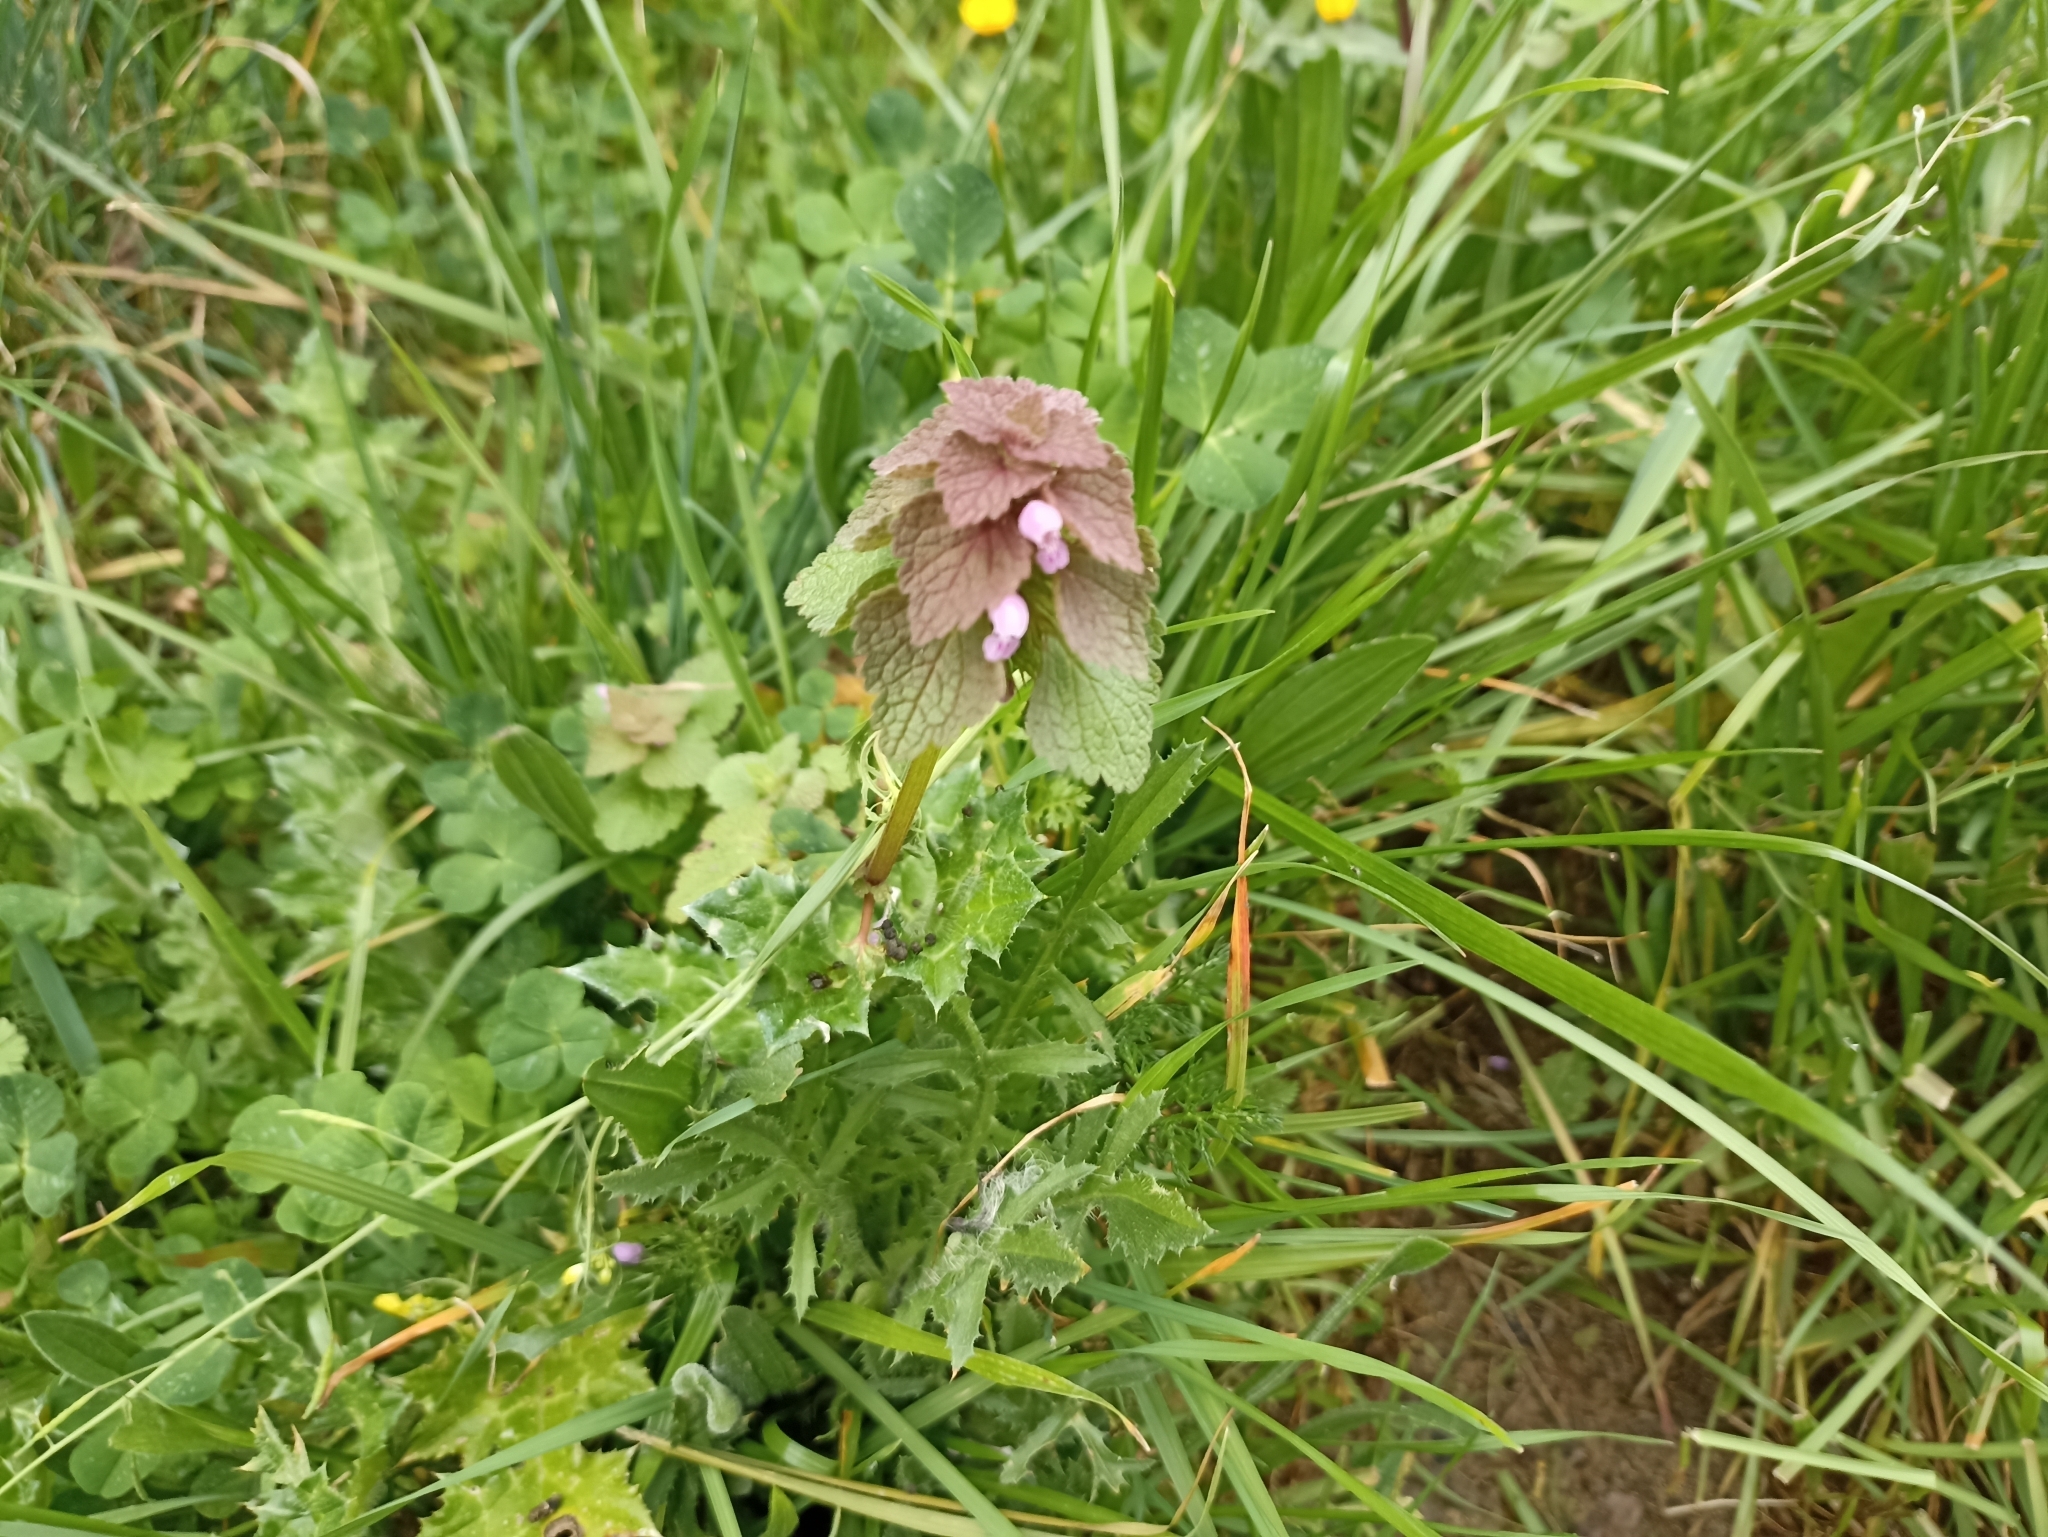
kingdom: Plantae
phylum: Tracheophyta
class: Magnoliopsida
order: Lamiales
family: Lamiaceae
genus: Lamium
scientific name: Lamium purpureum
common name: Red dead-nettle
